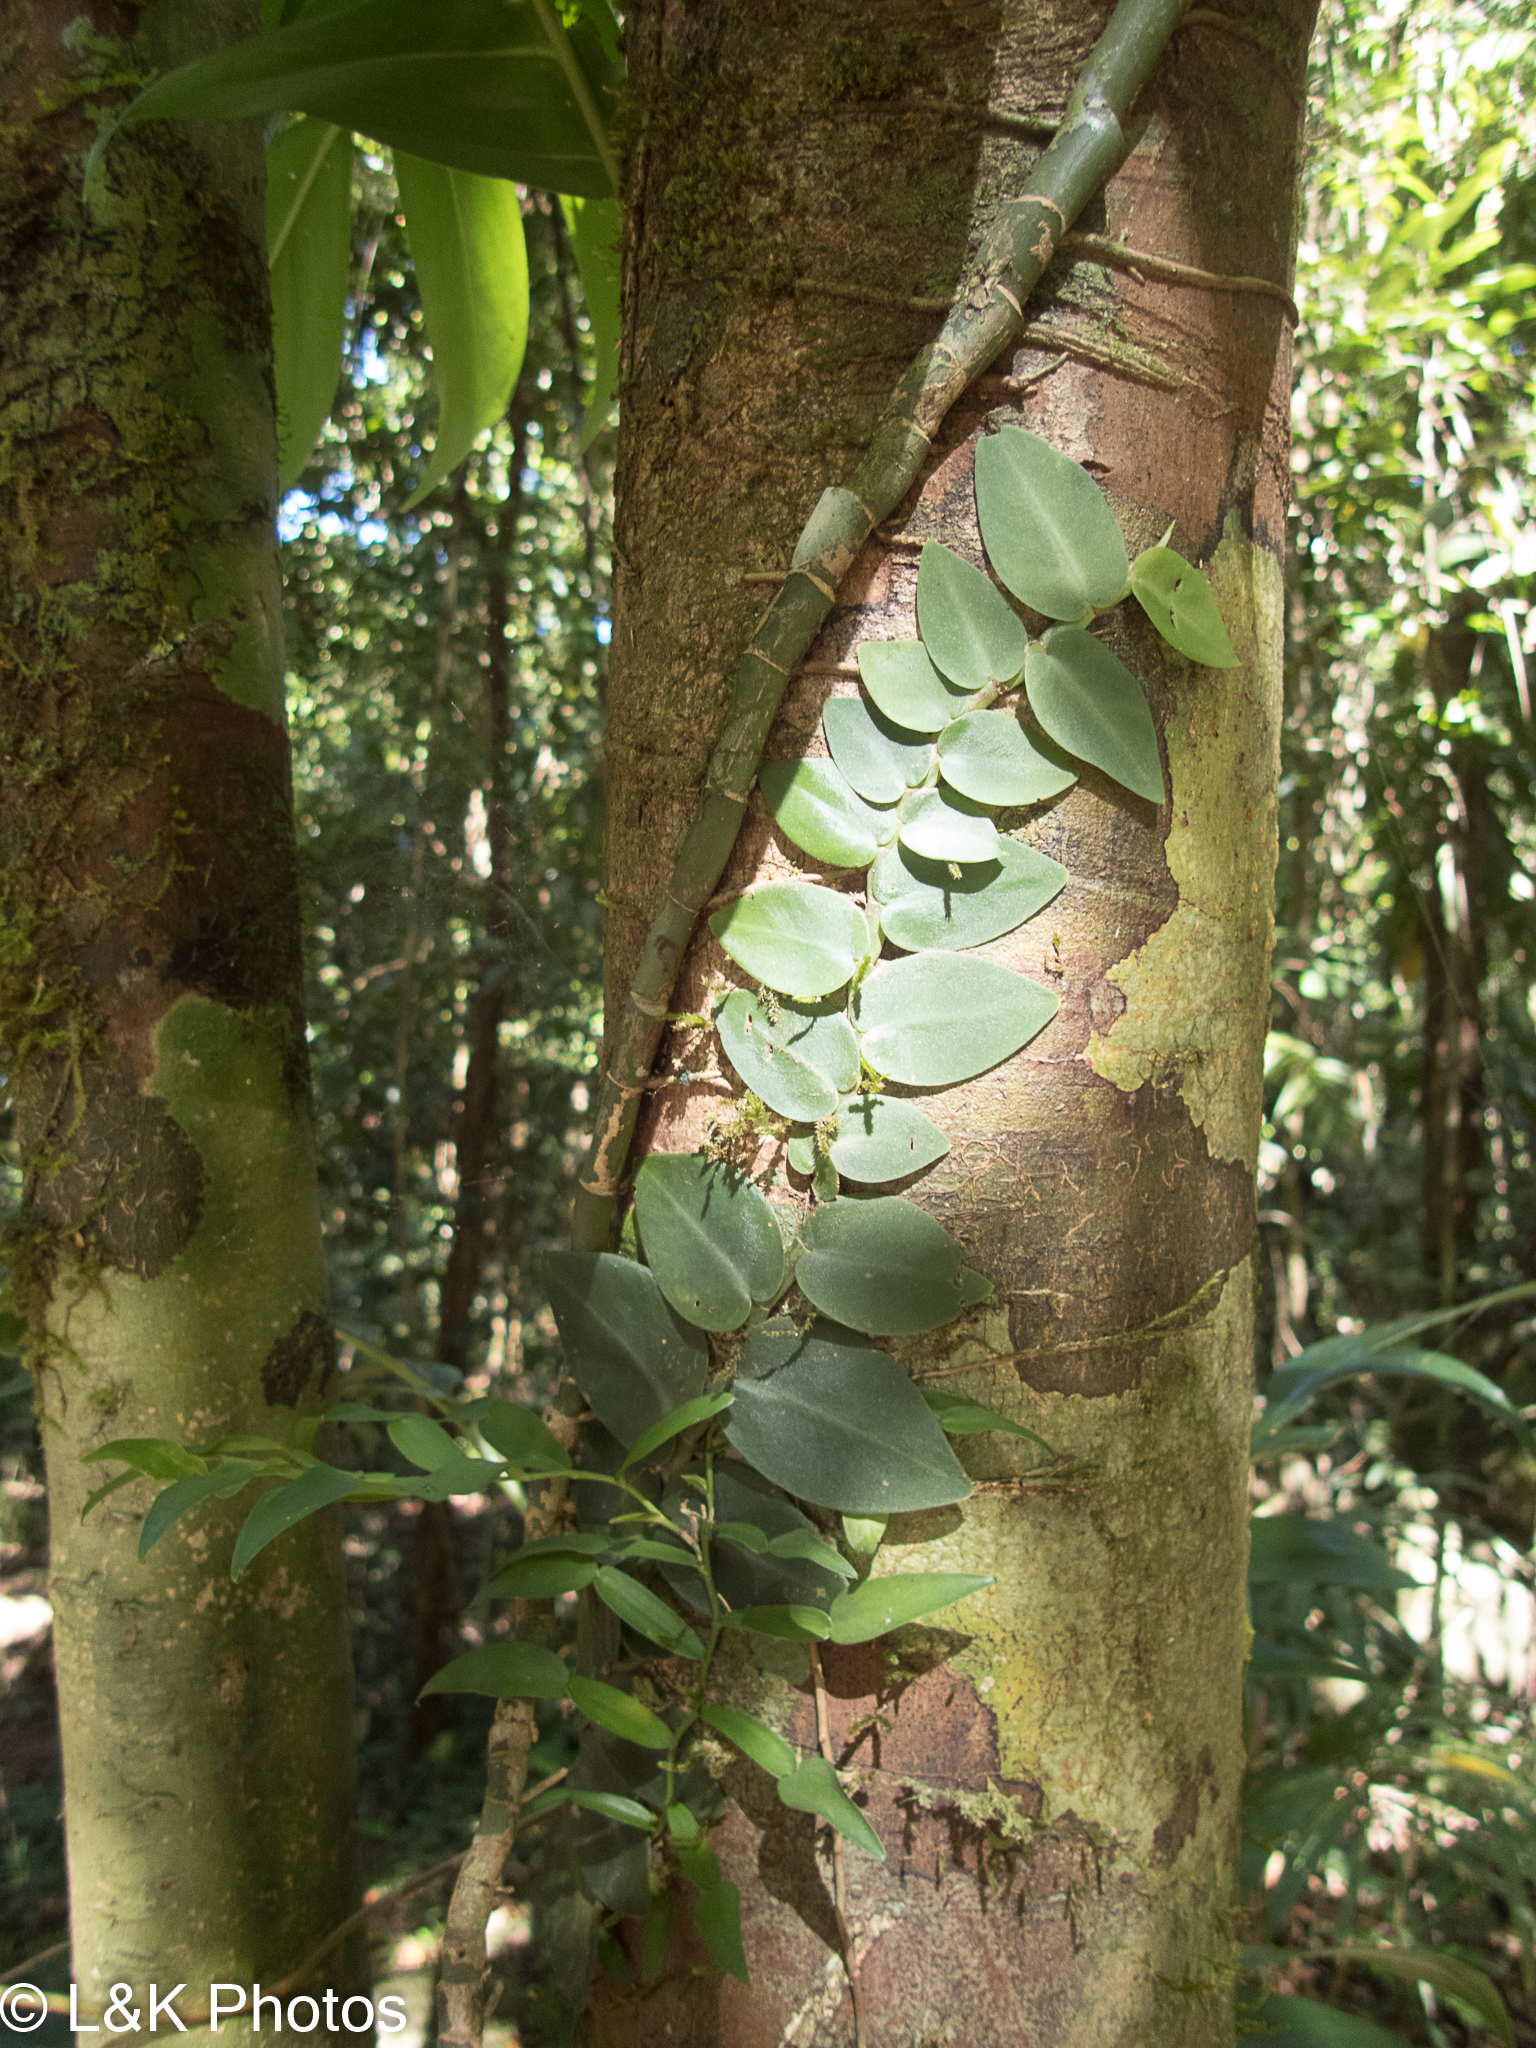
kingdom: Plantae
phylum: Tracheophyta
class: Liliopsida
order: Alismatales
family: Araceae
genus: Rhaphidophora
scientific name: Rhaphidophora hayi
